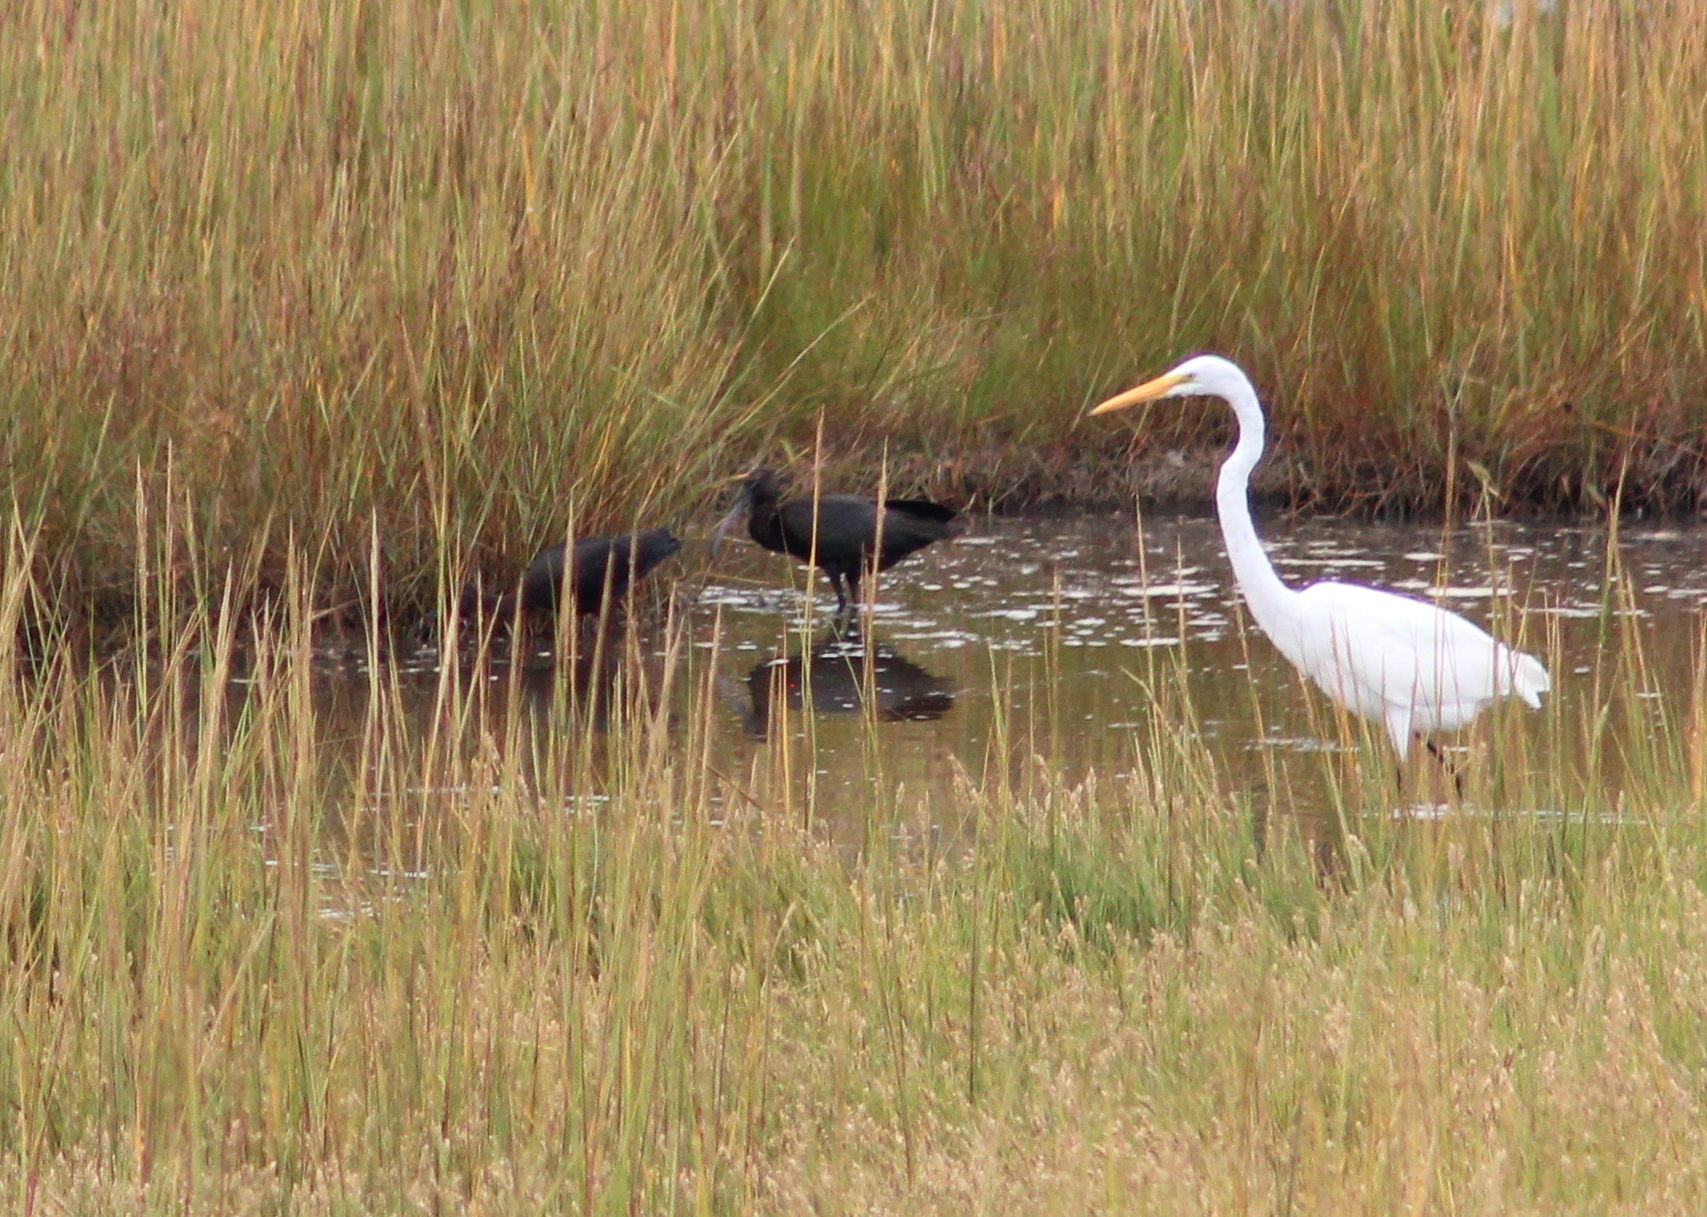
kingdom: Animalia
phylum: Chordata
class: Aves
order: Pelecaniformes
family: Ardeidae
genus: Ardea
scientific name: Ardea alba
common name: Great egret
